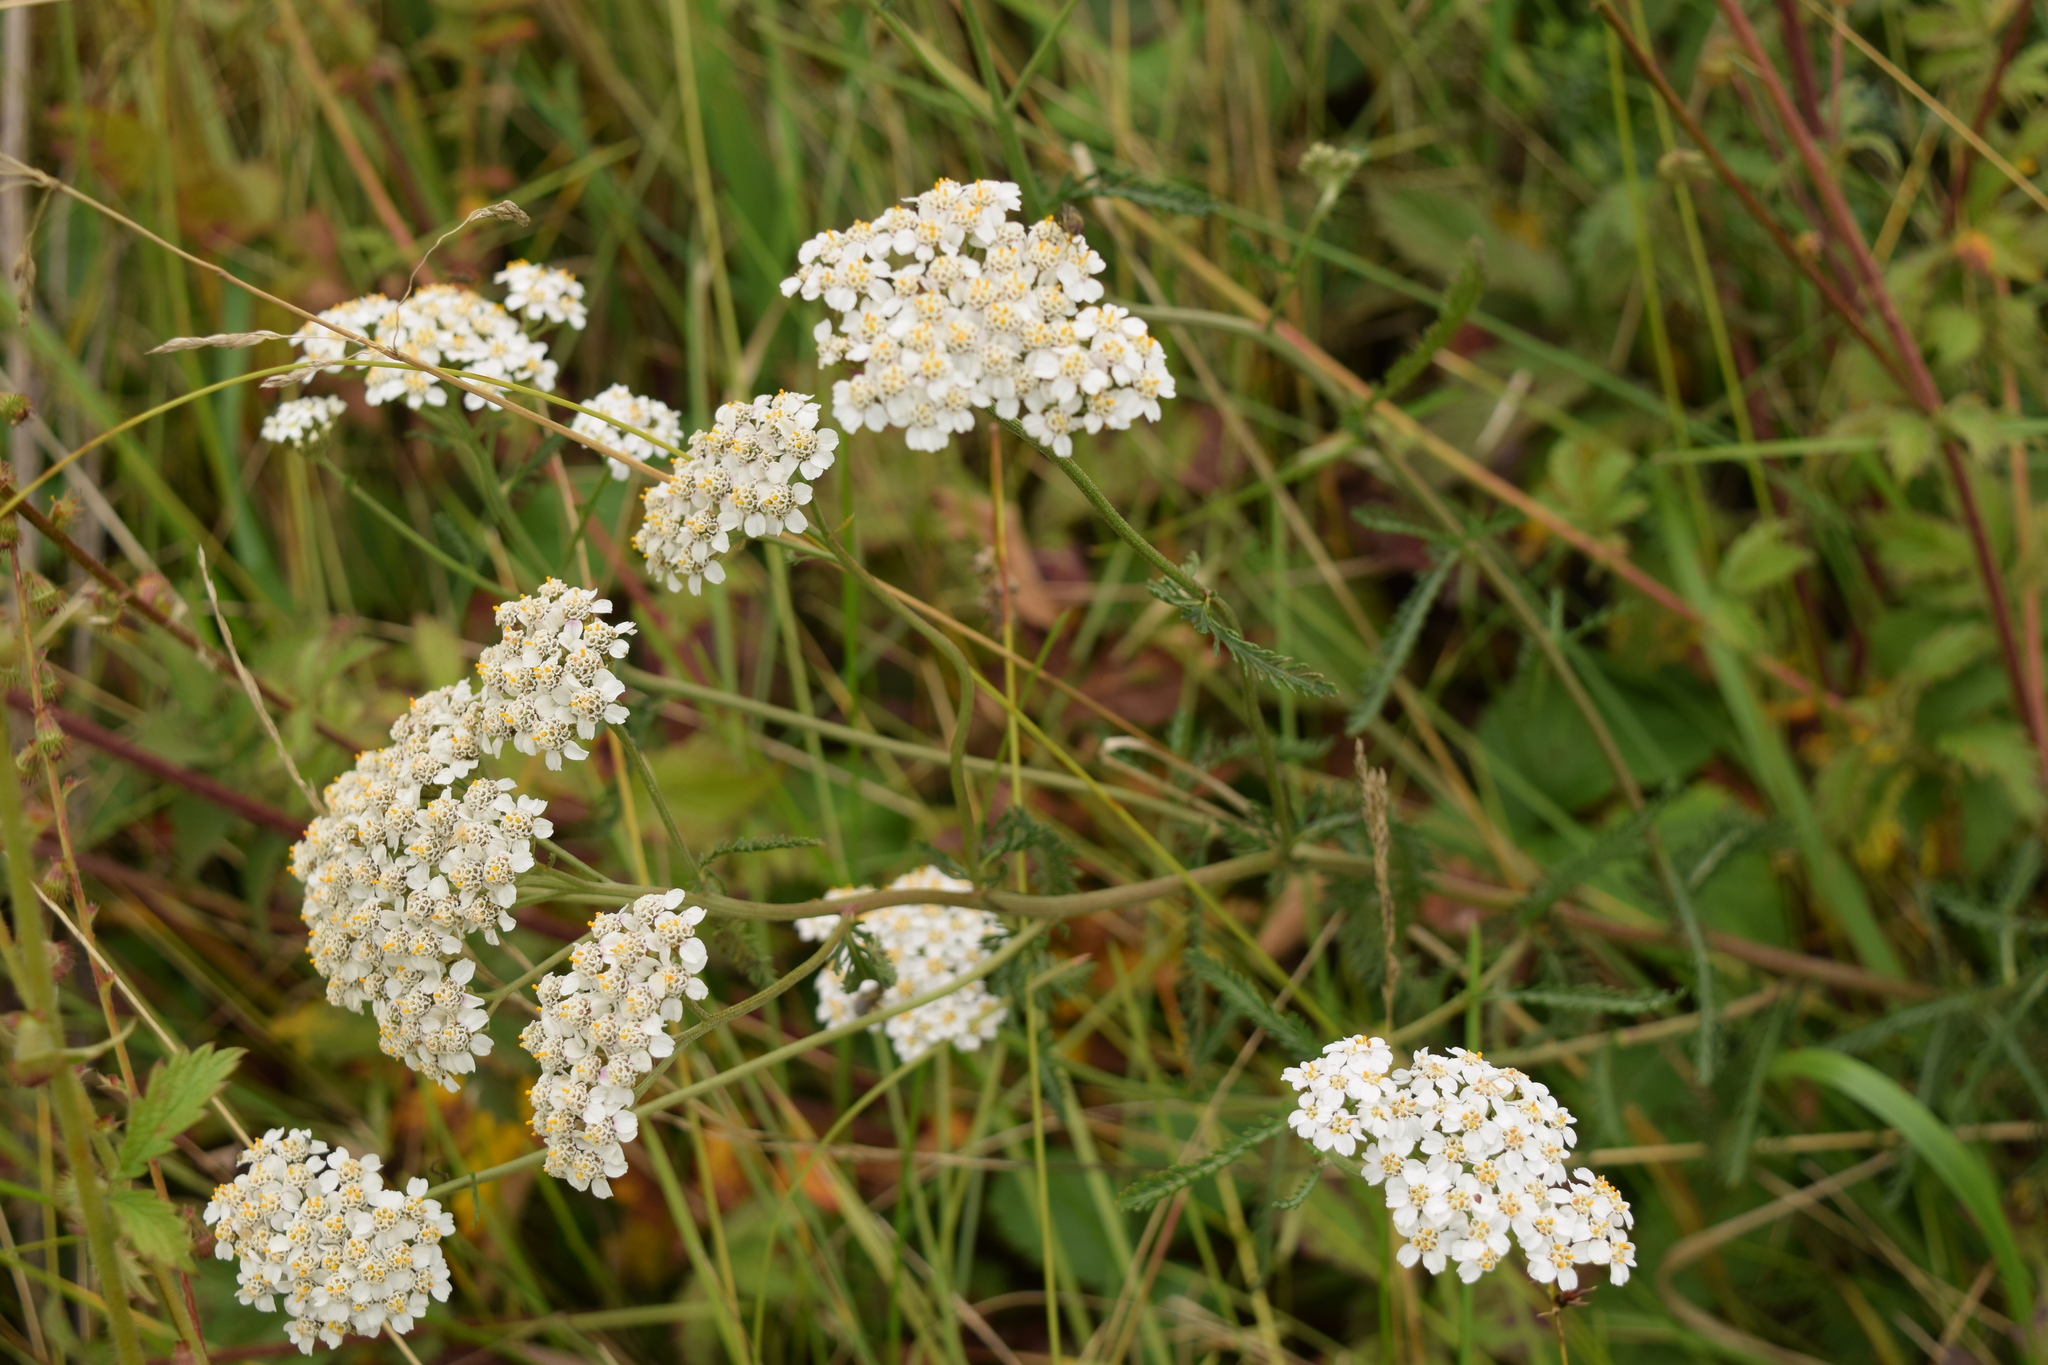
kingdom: Plantae
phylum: Tracheophyta
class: Magnoliopsida
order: Asterales
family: Asteraceae
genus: Achillea
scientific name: Achillea millefolium
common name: Yarrow
